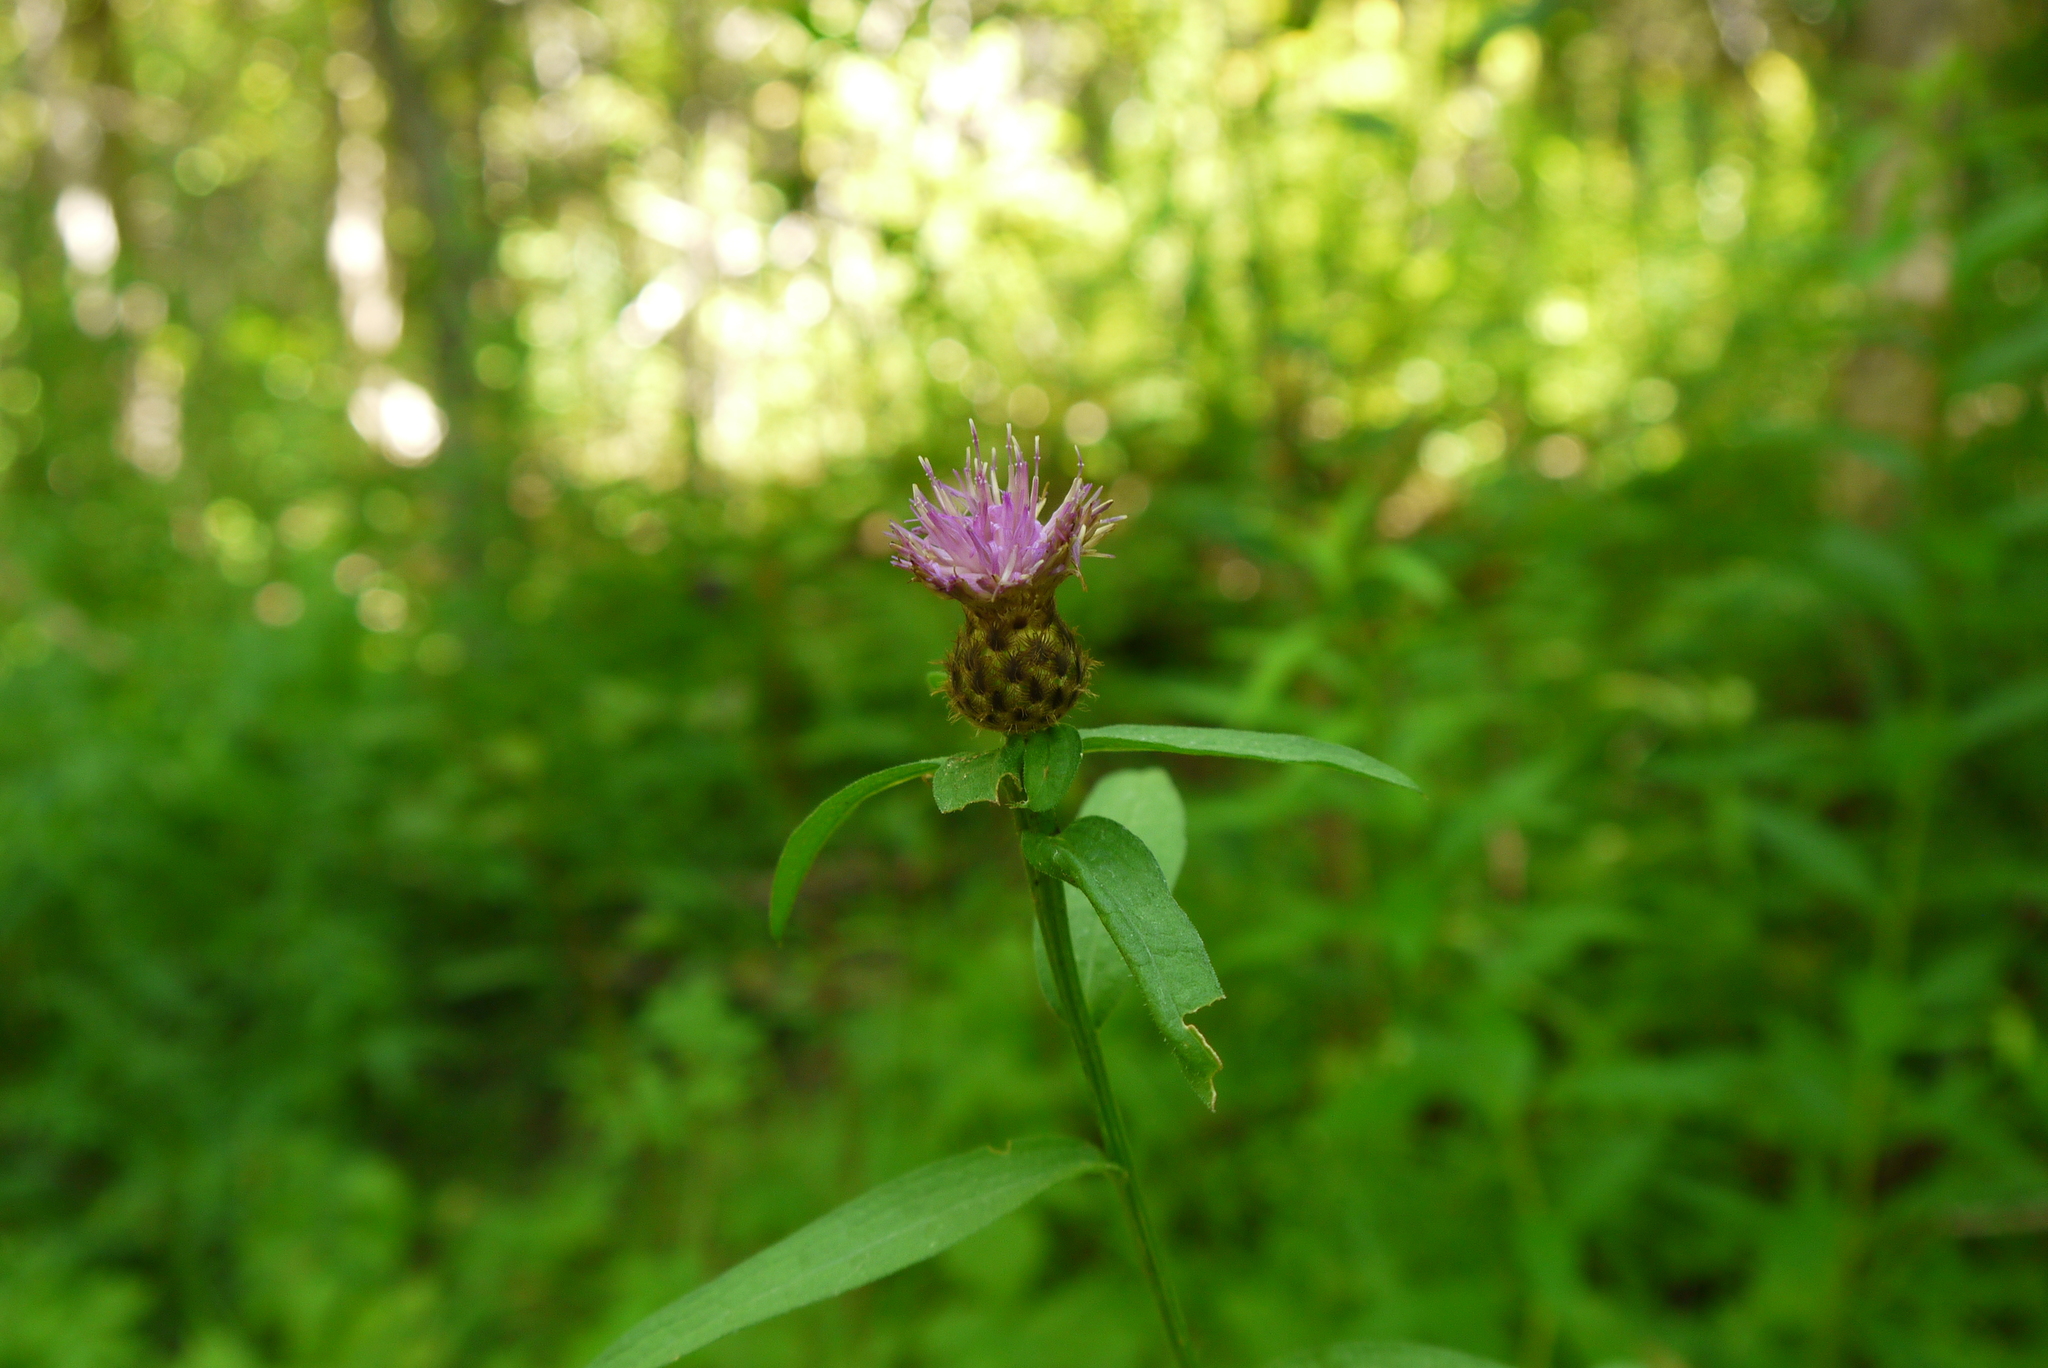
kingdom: Plantae
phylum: Tracheophyta
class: Magnoliopsida
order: Asterales
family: Asteraceae
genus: Centaurea
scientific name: Centaurea nigra
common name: Lesser knapweed
